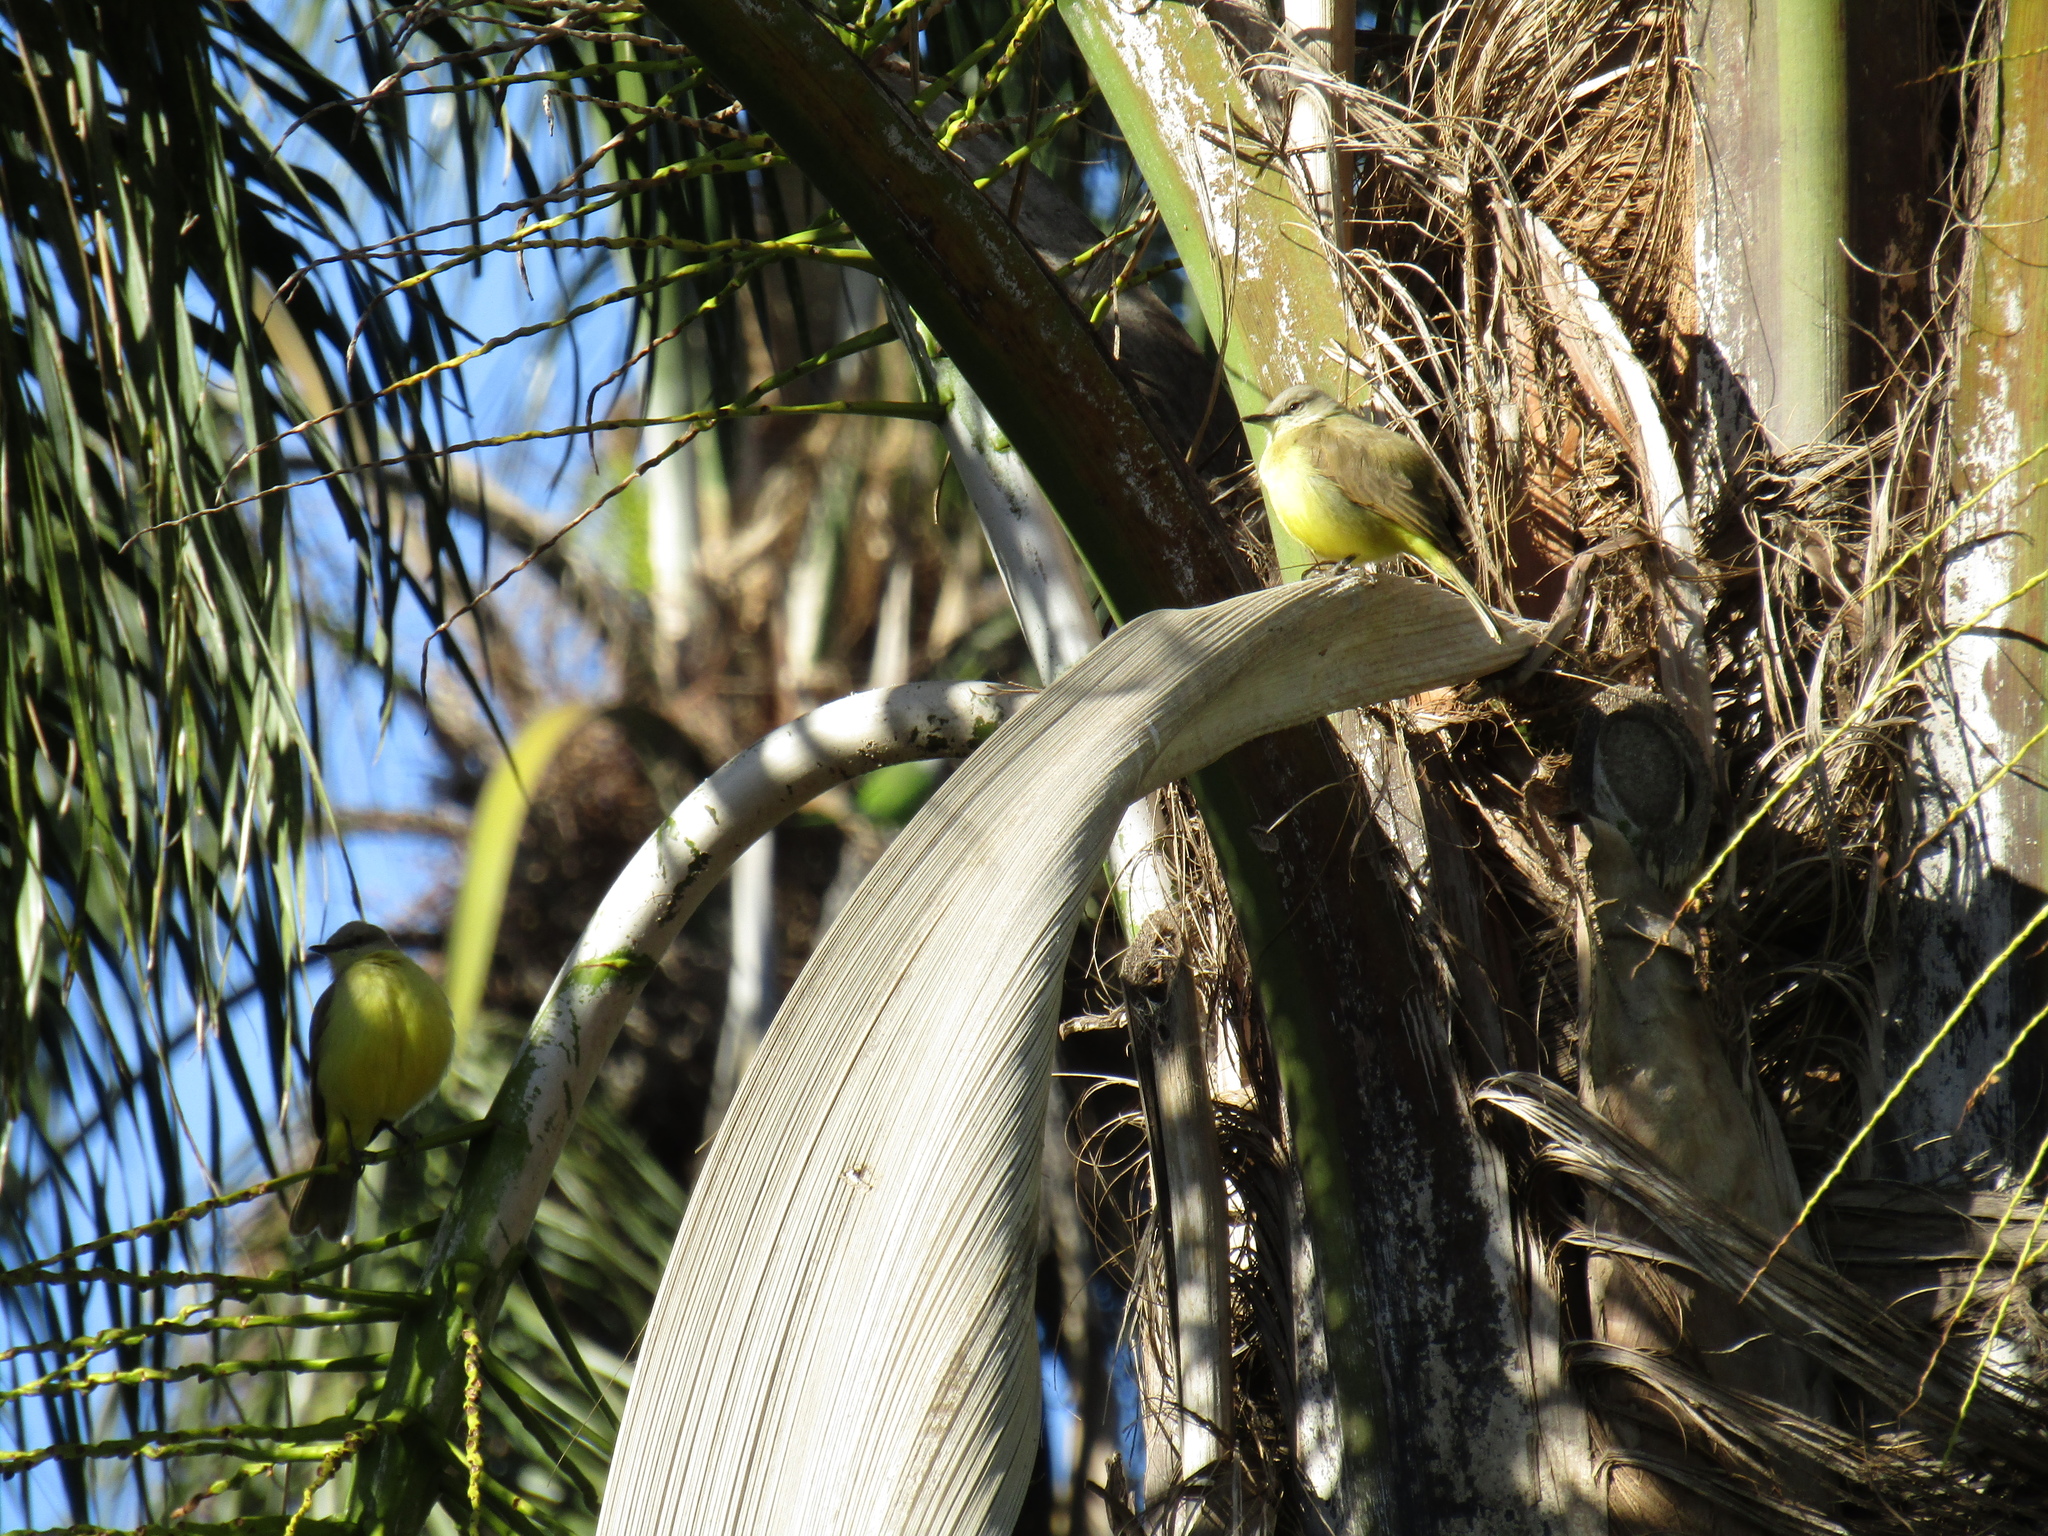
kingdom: Animalia
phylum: Chordata
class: Aves
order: Passeriformes
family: Tyrannidae
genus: Machetornis
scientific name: Machetornis rixosa
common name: Cattle tyrant
